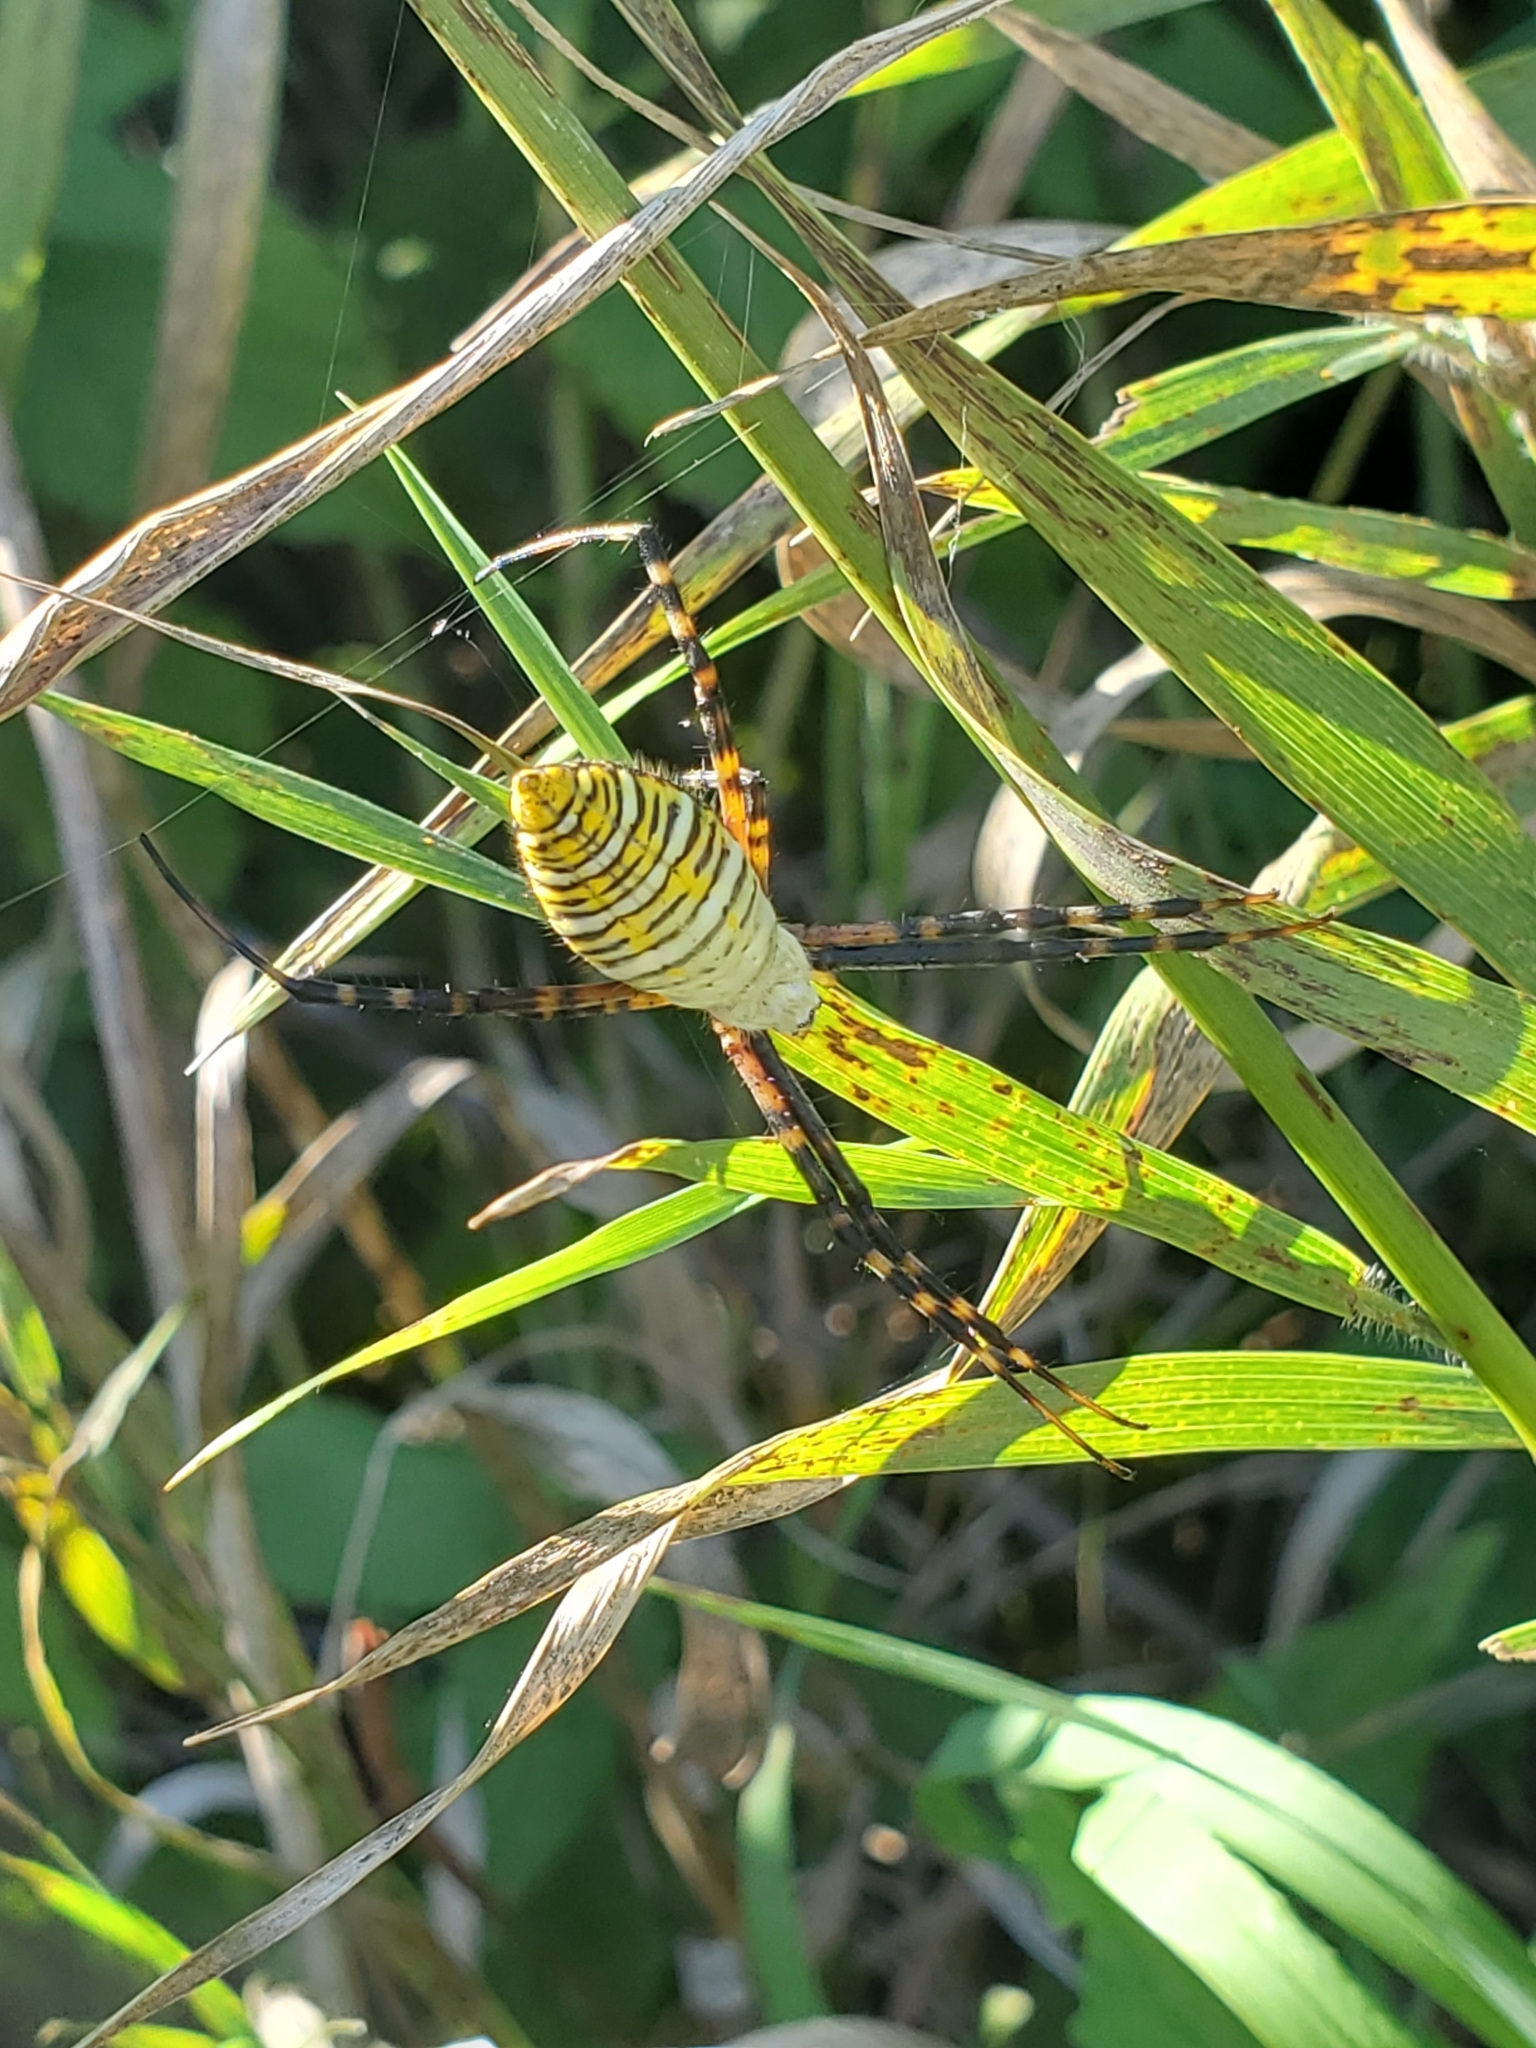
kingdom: Animalia
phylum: Arthropoda
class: Arachnida
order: Araneae
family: Araneidae
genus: Argiope
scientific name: Argiope trifasciata
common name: Banded garden spider
